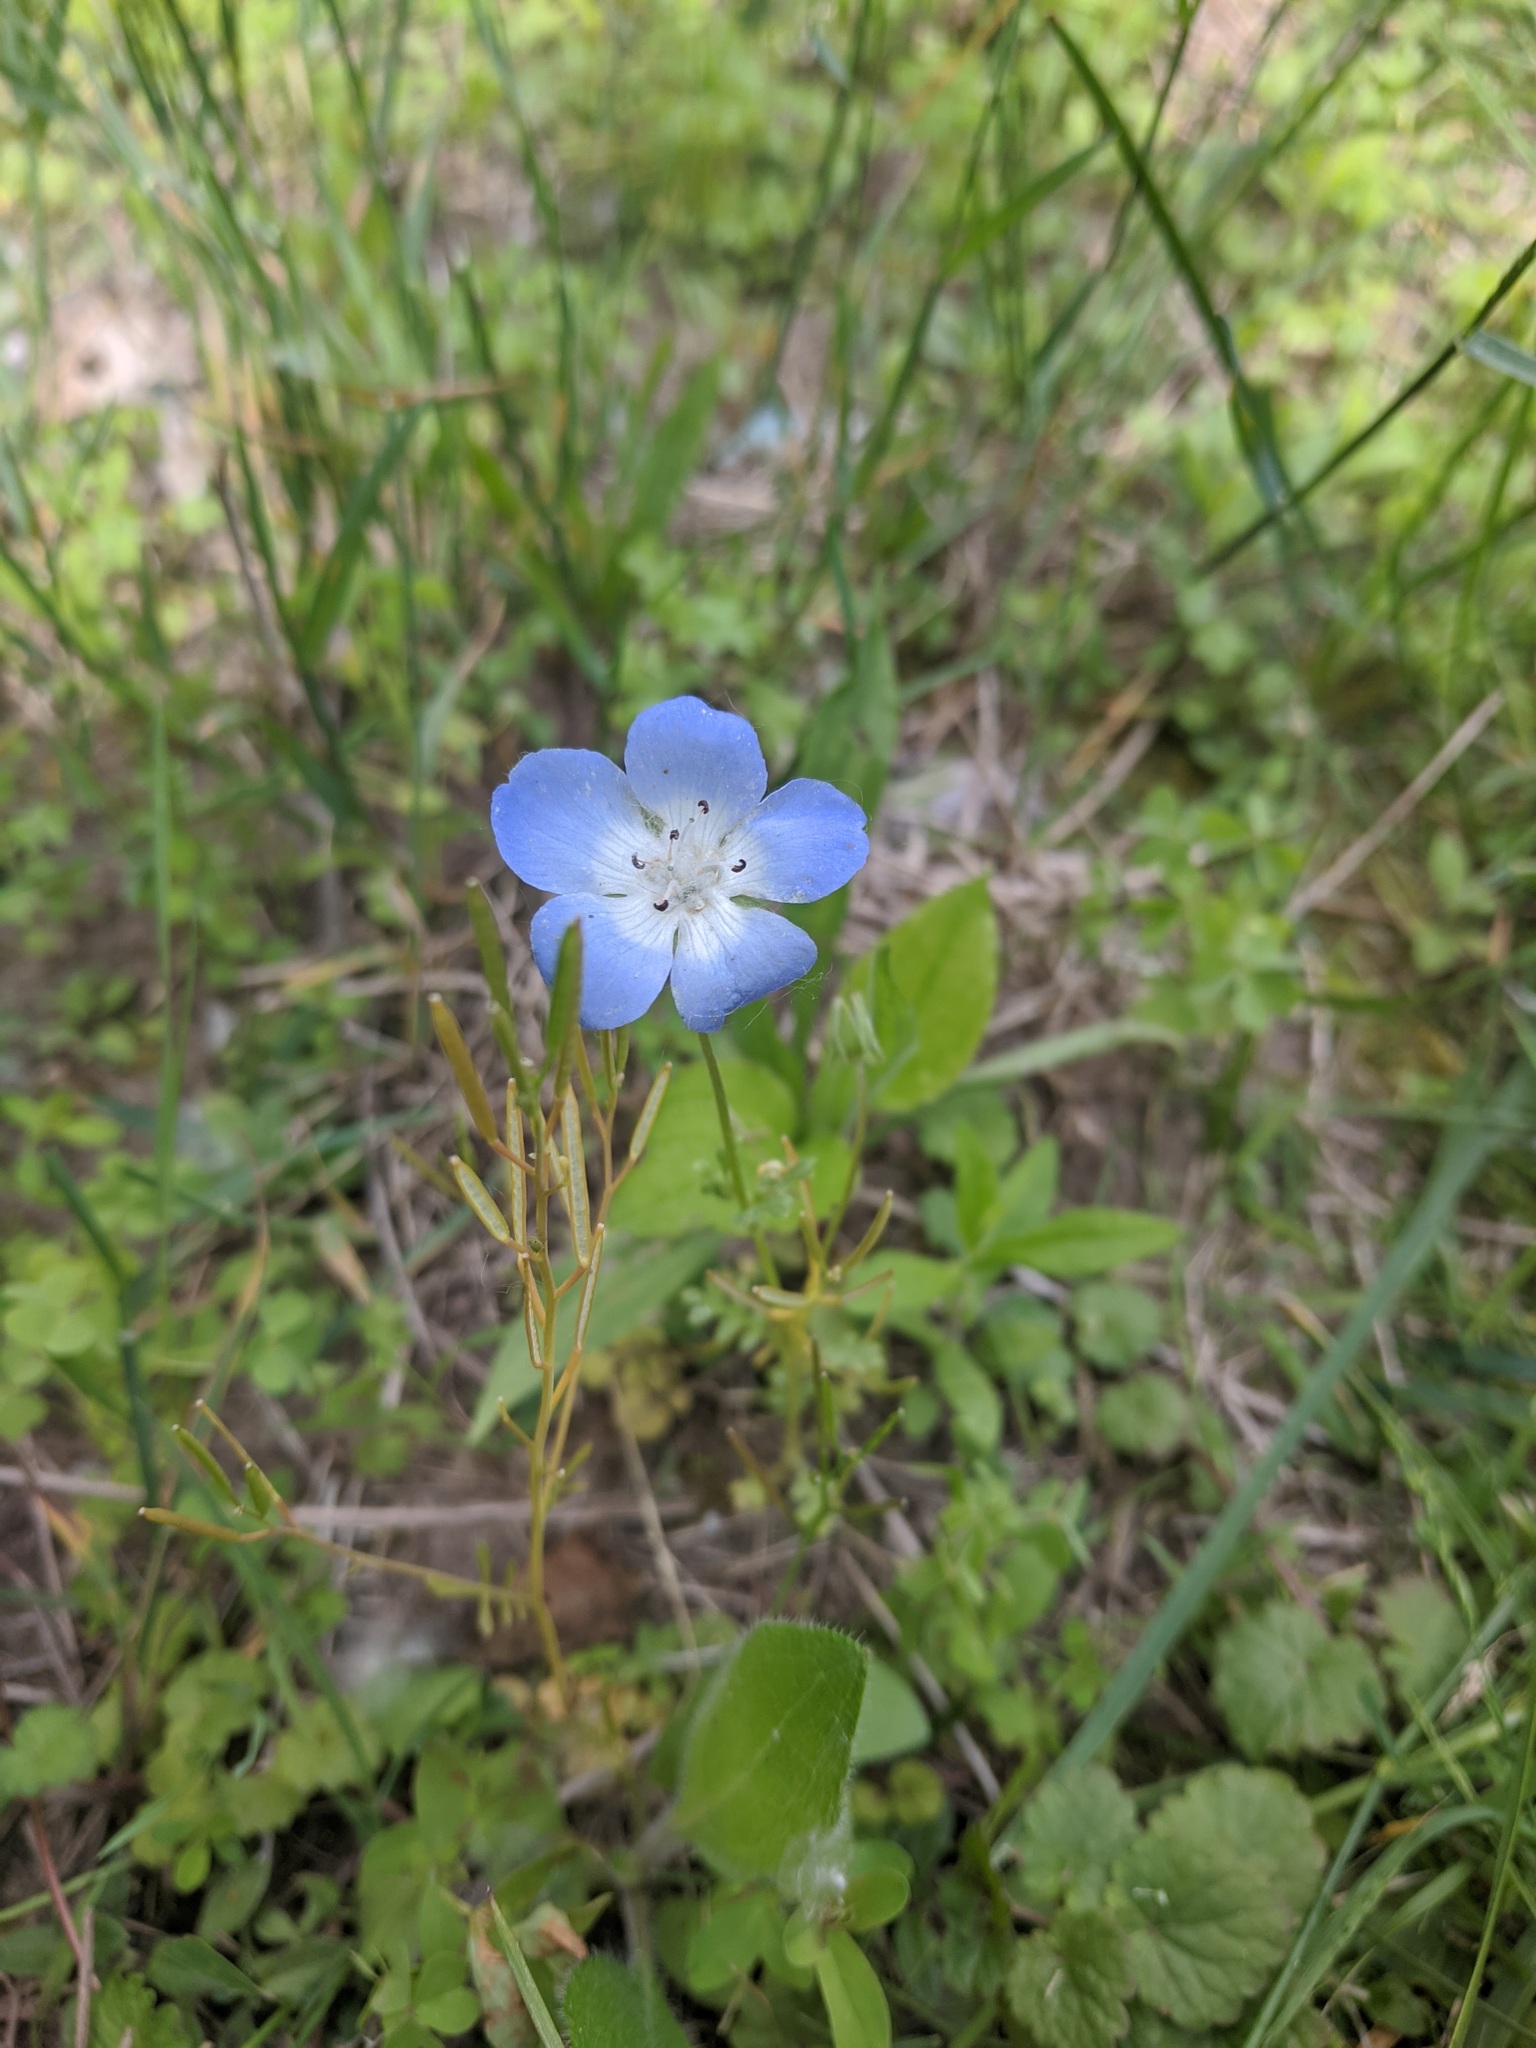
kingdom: Plantae
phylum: Tracheophyta
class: Magnoliopsida
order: Boraginales
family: Hydrophyllaceae
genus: Nemophila
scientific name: Nemophila menziesii
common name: Baby's-blue-eyes
